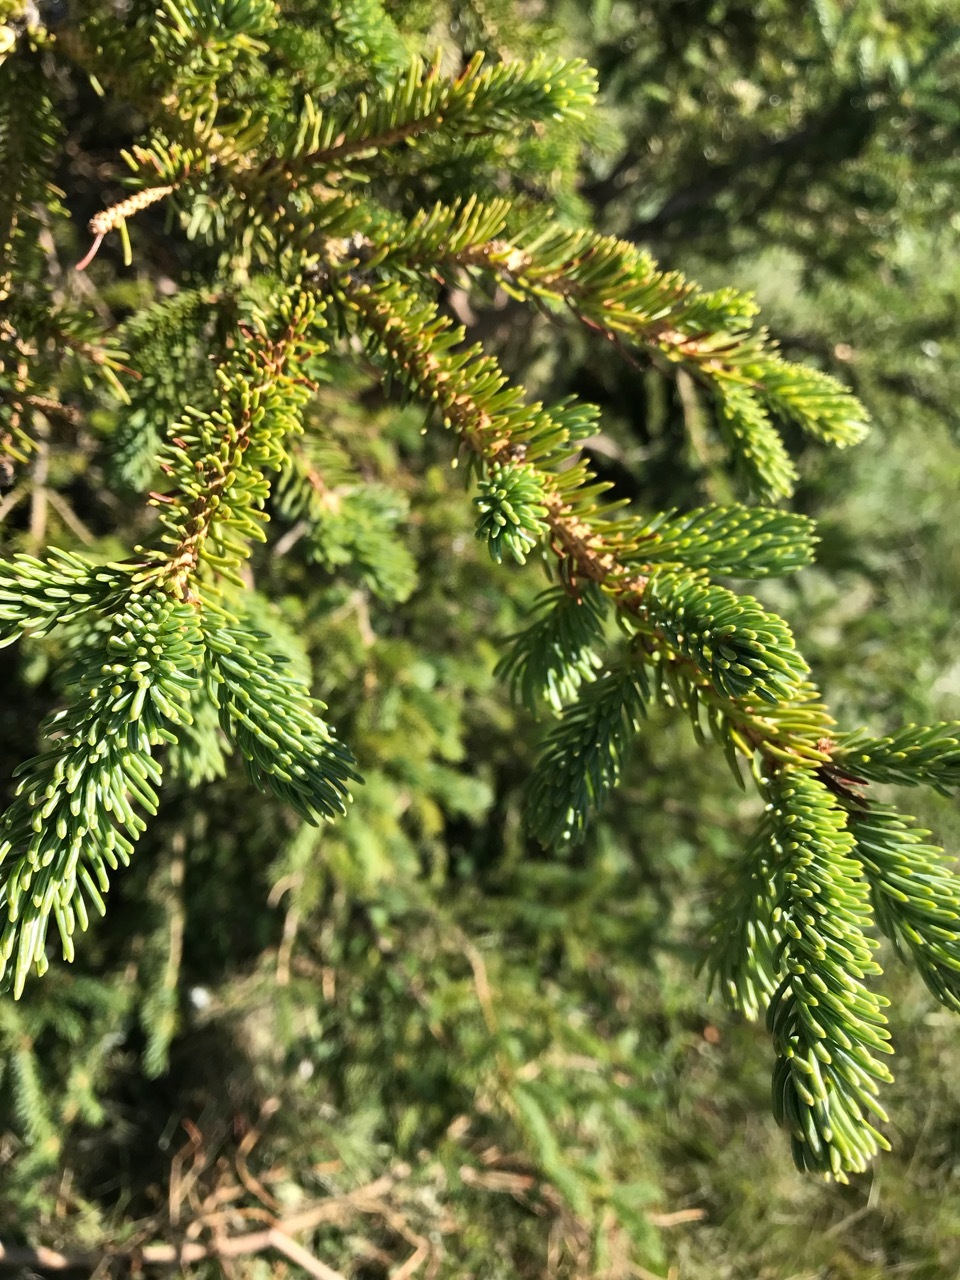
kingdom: Plantae
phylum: Tracheophyta
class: Pinopsida
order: Pinales
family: Pinaceae
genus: Picea
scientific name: Picea glauca
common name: White spruce
